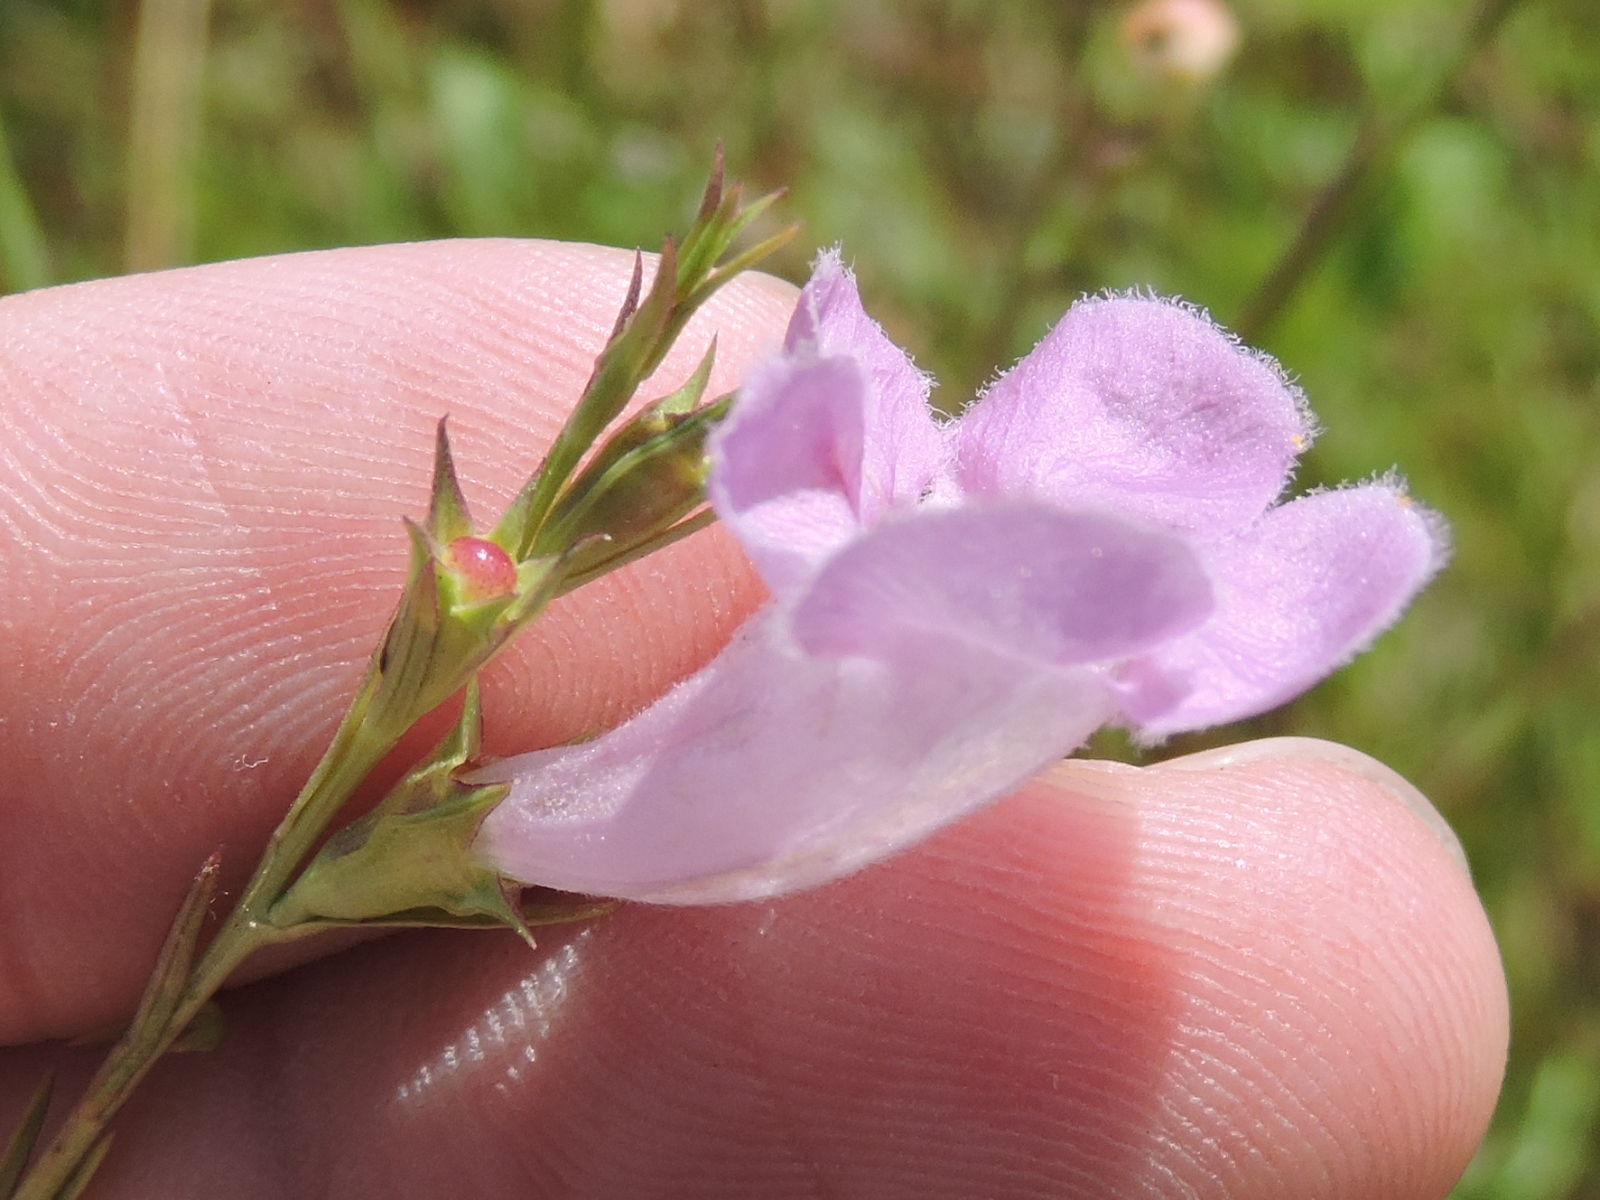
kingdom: Plantae
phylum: Tracheophyta
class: Magnoliopsida
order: Lamiales
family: Orobanchaceae
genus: Agalinis
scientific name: Agalinis heterophylla
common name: Prairie agalinis
